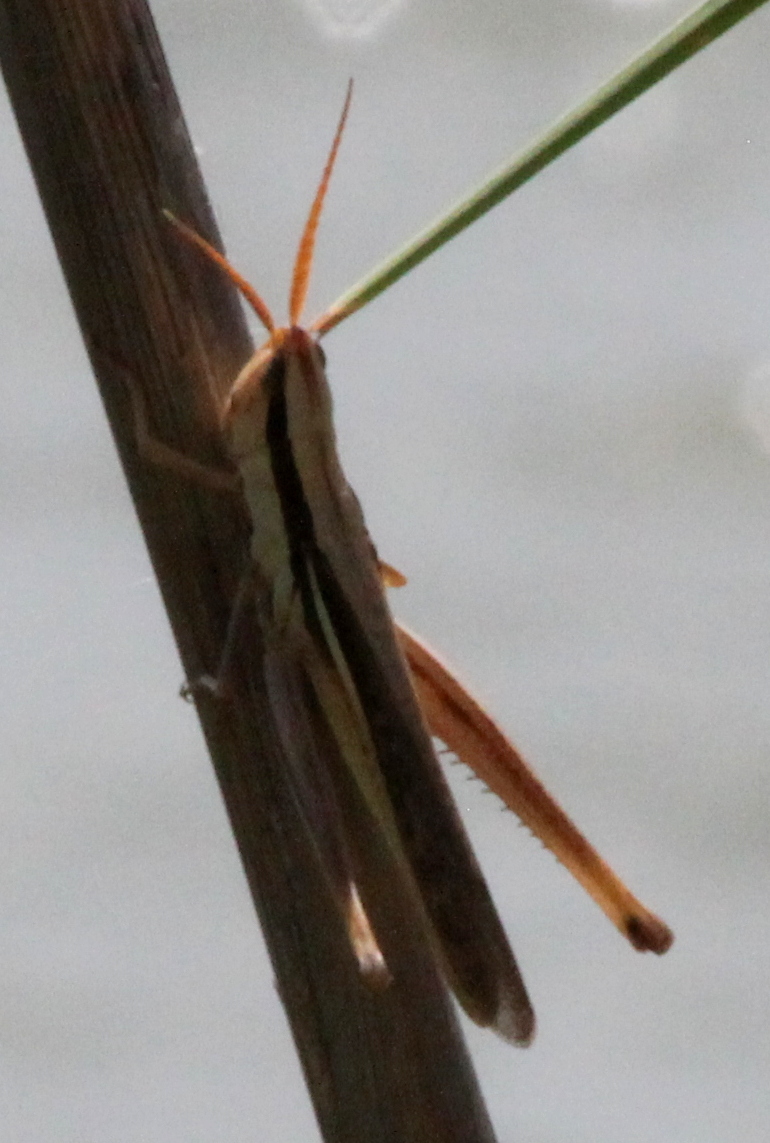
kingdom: Animalia
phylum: Arthropoda
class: Insecta
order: Orthoptera
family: Acrididae
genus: Mermiria
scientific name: Mermiria bivittata
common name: Two-striped mermiria grasshopper
